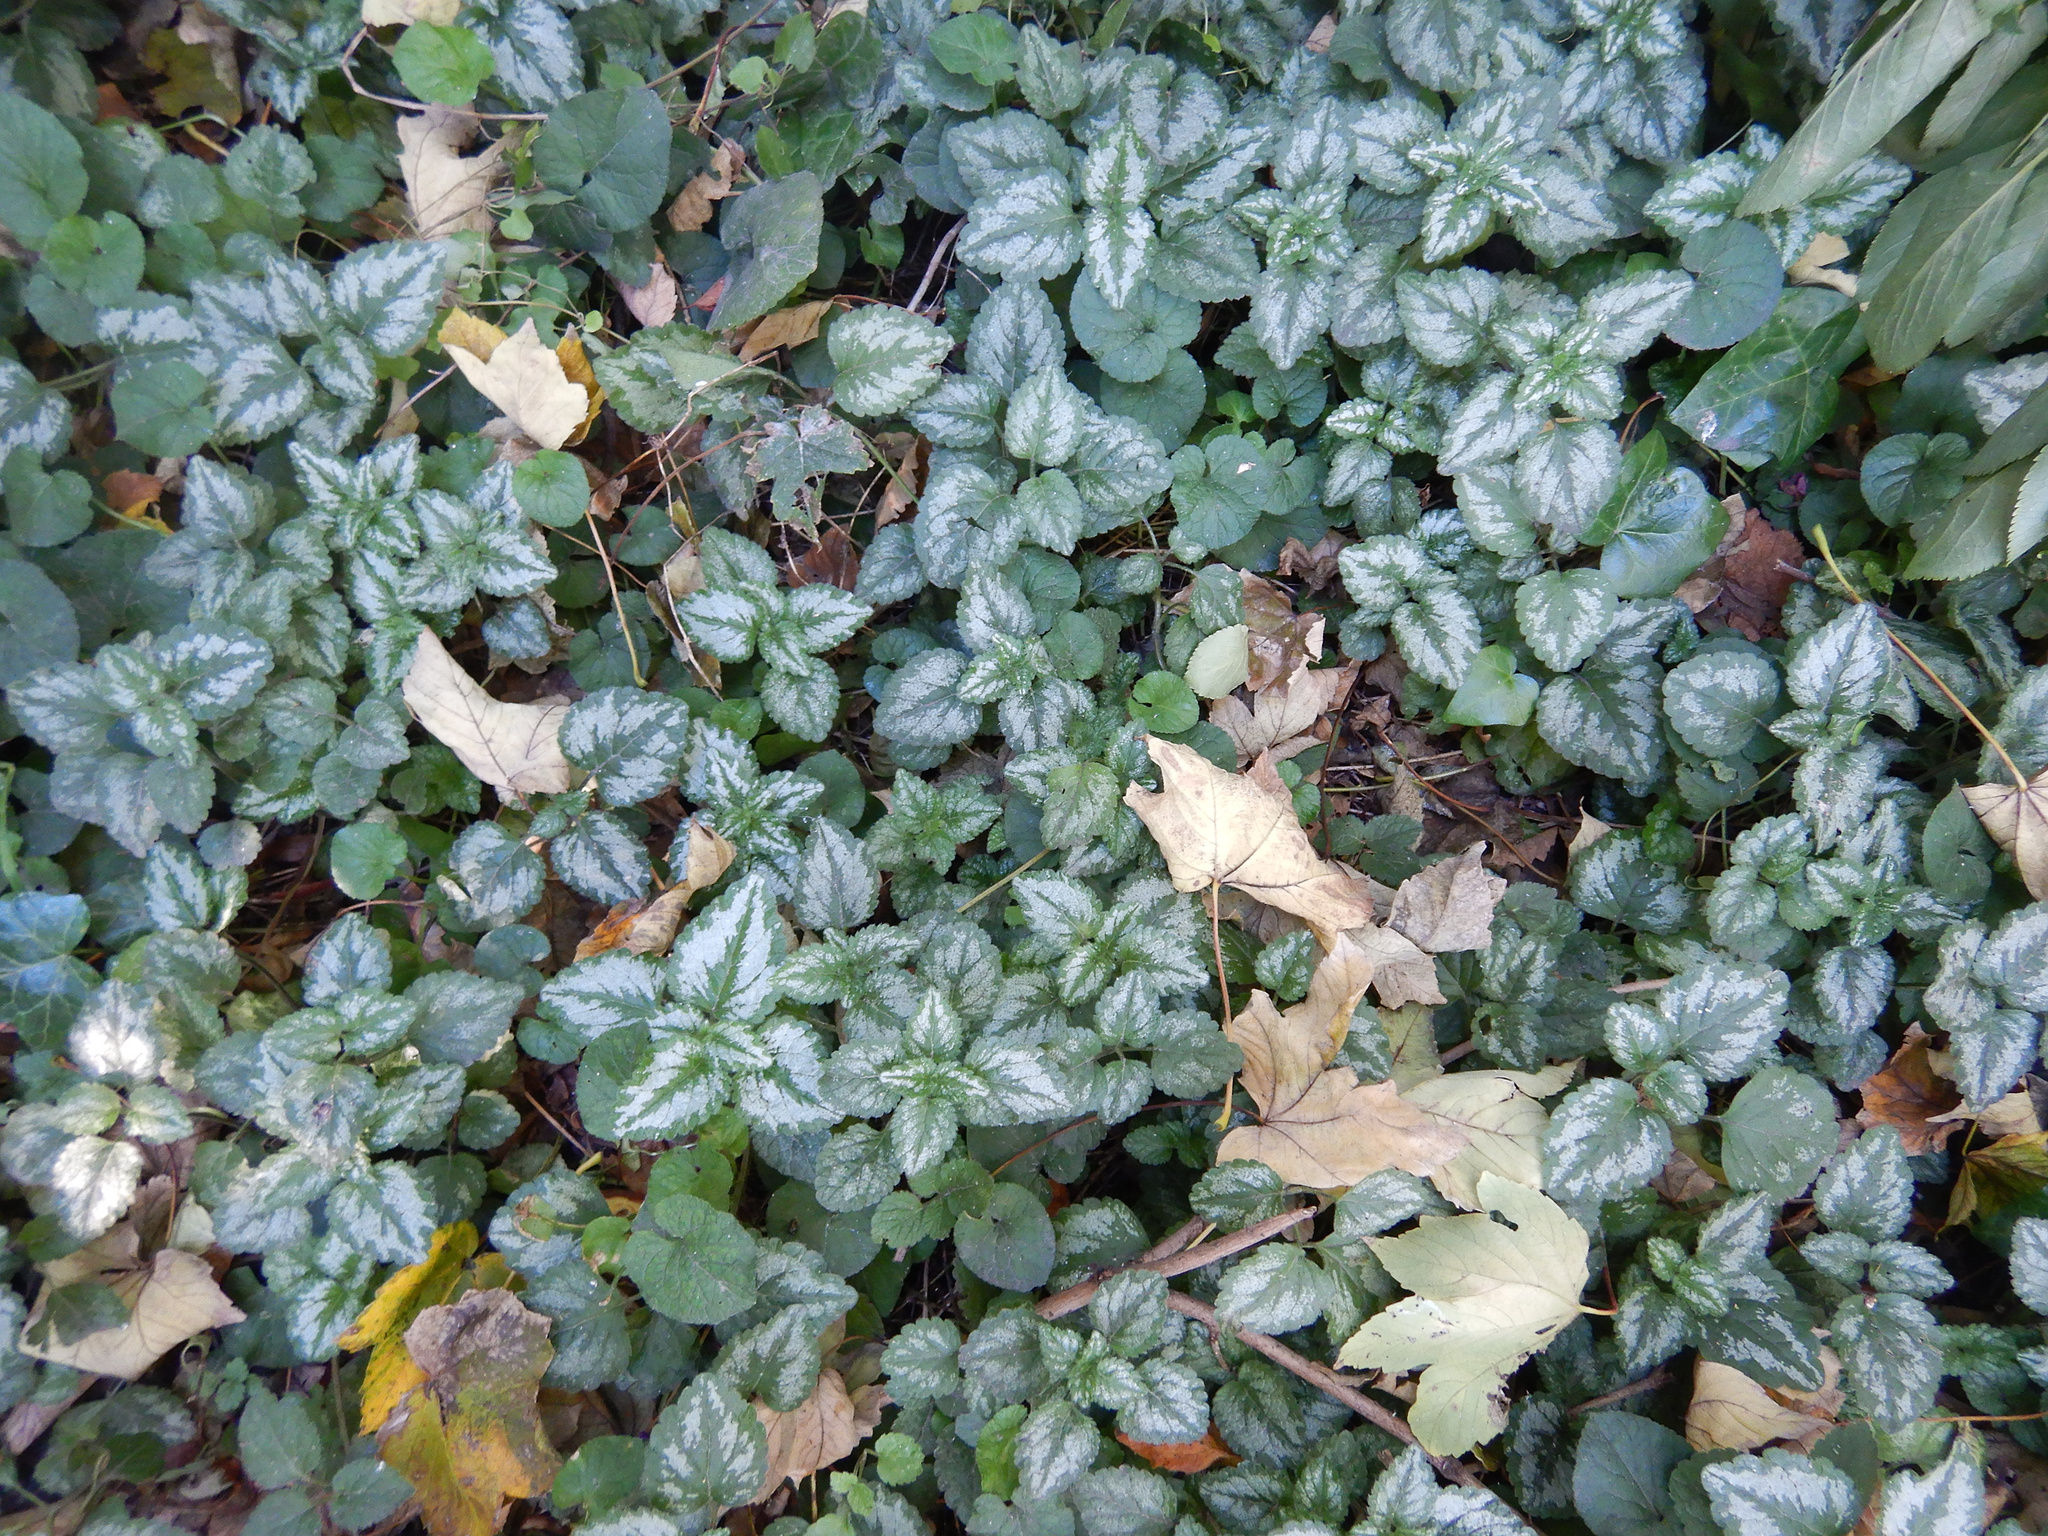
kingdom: Plantae
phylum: Tracheophyta
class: Magnoliopsida
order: Lamiales
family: Lamiaceae
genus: Lamium
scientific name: Lamium galeobdolon
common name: Yellow archangel
